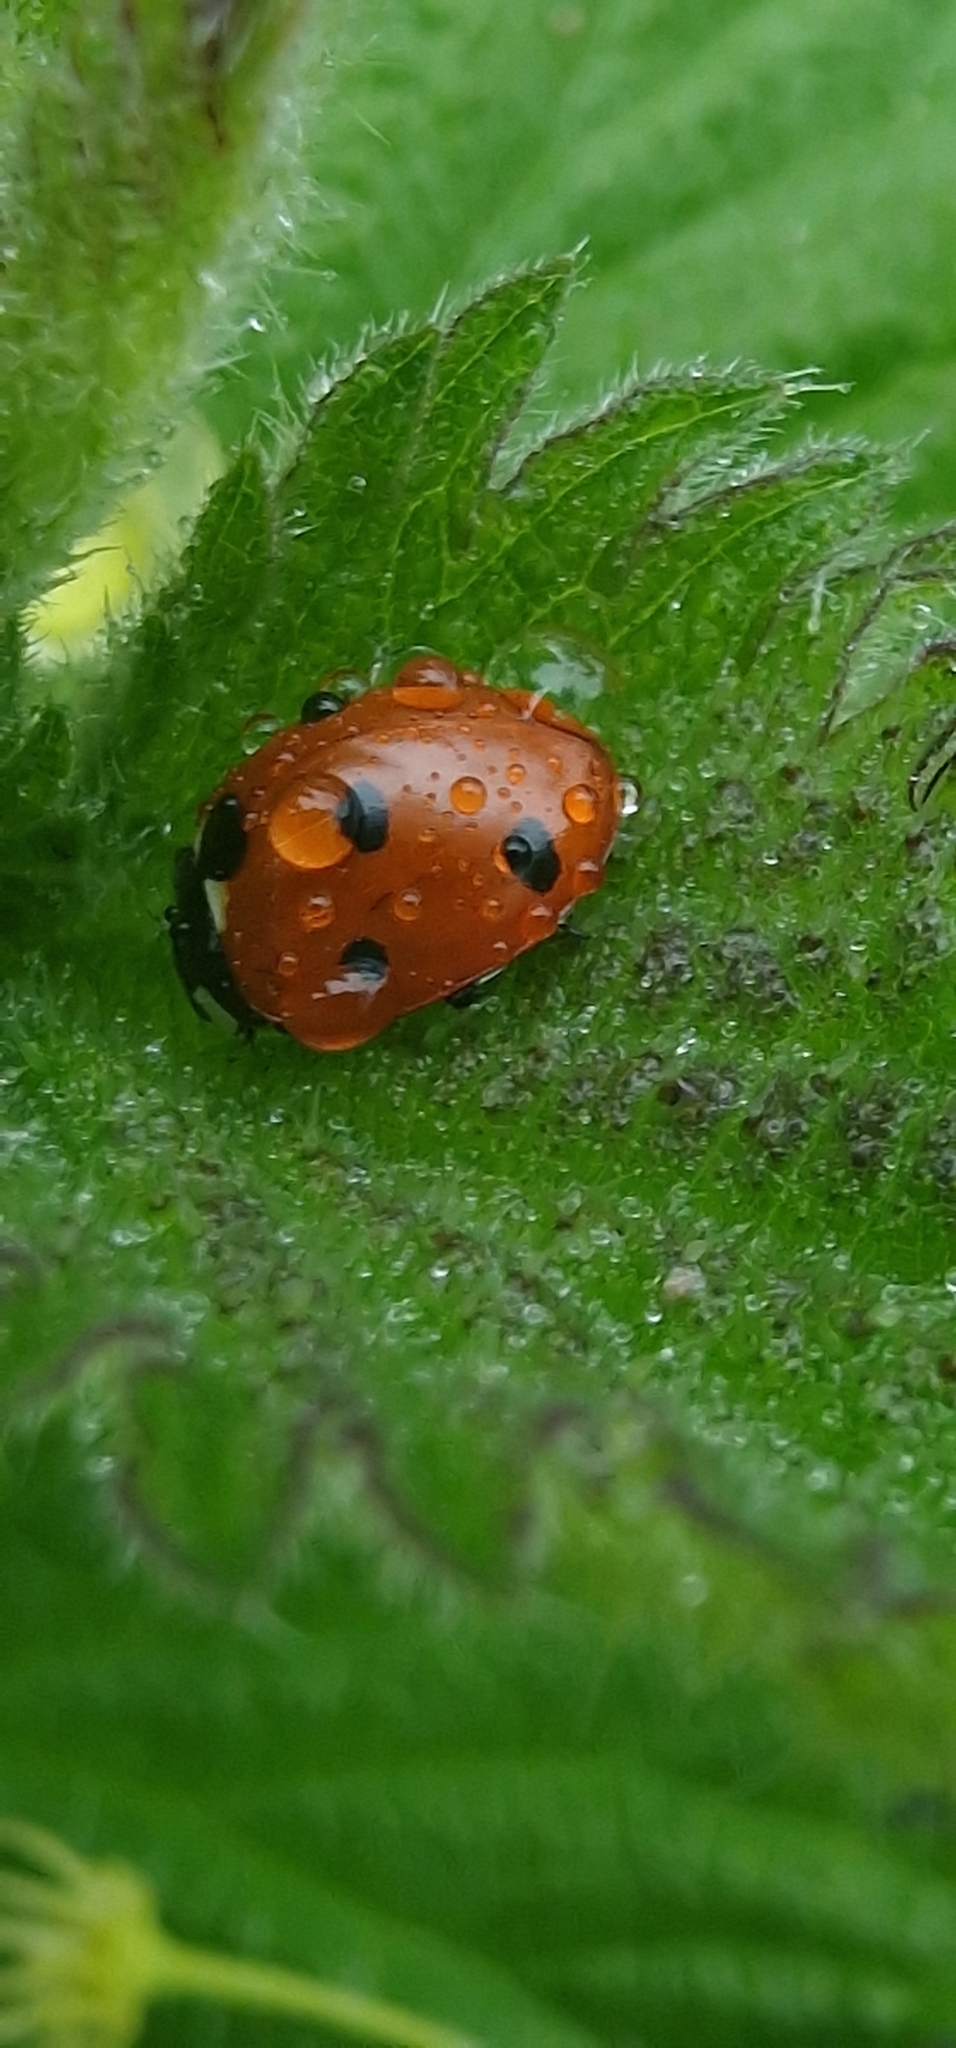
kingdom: Animalia
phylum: Arthropoda
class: Insecta
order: Coleoptera
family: Coccinellidae
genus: Coccinella
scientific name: Coccinella septempunctata
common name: Sevenspotted lady beetle
